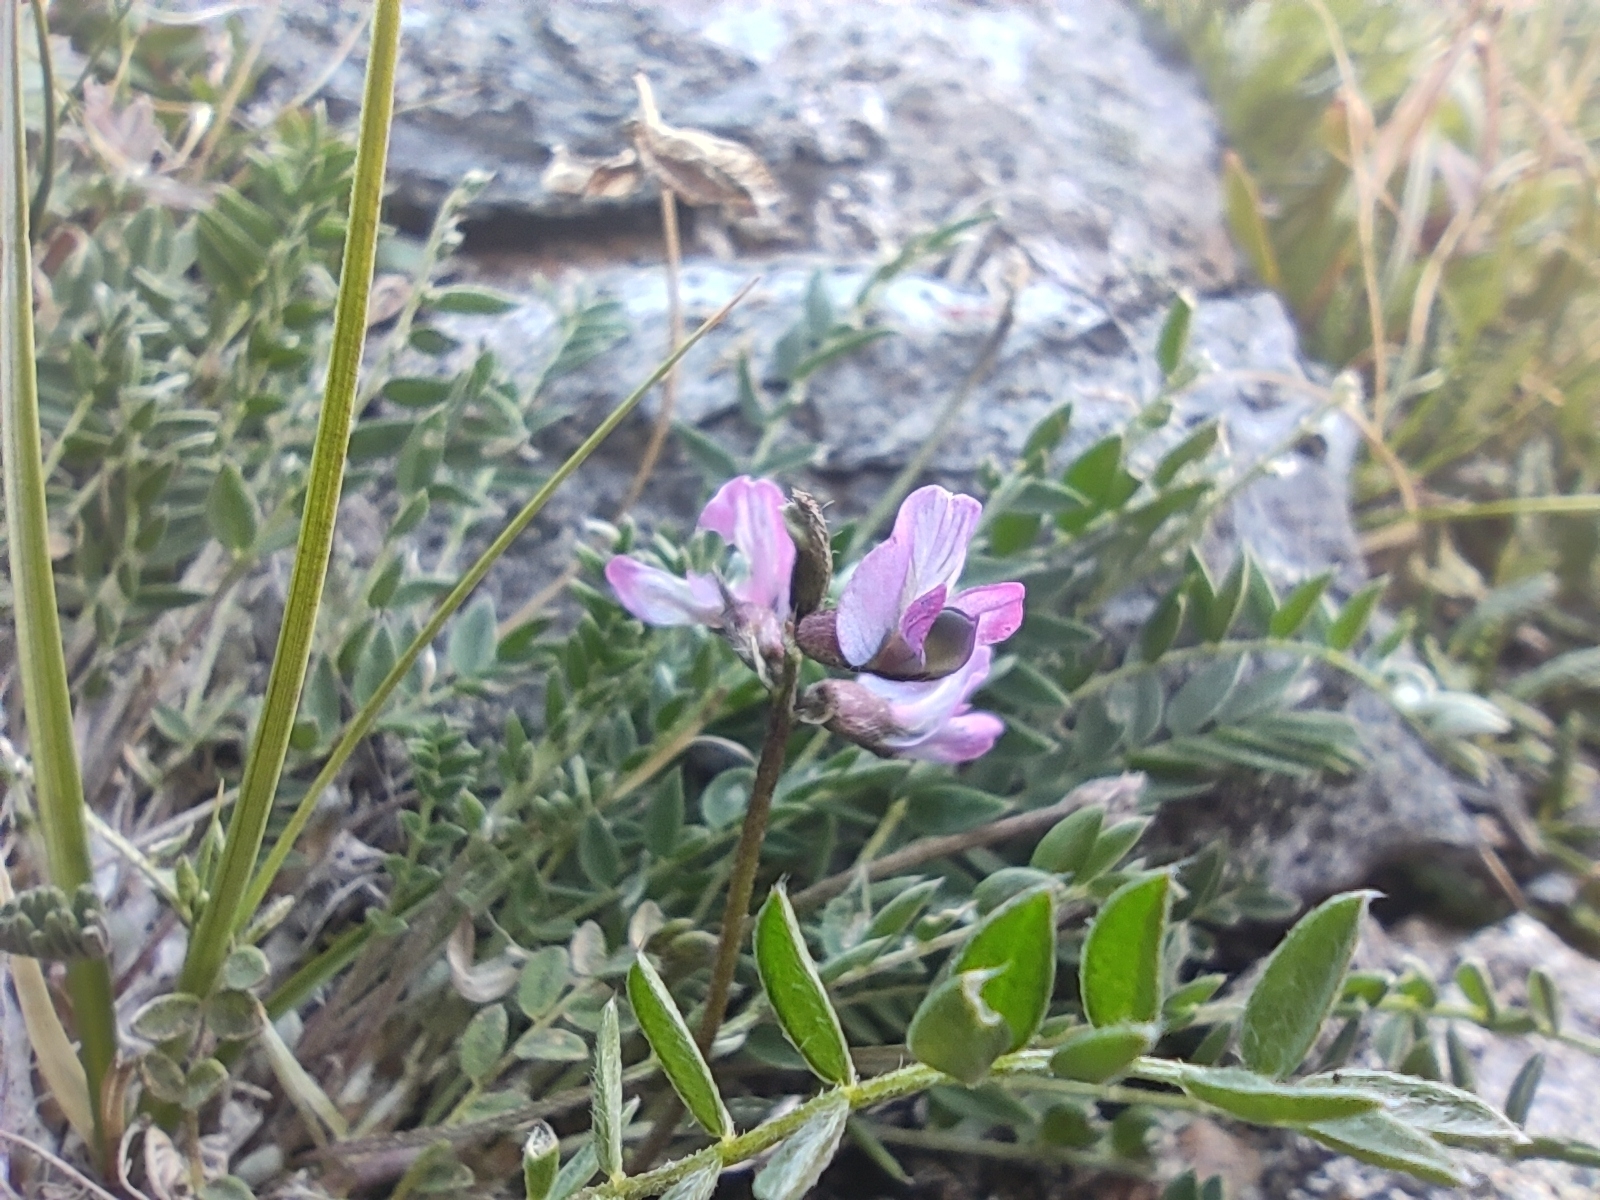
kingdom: Plantae
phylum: Tracheophyta
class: Magnoliopsida
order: Fabales
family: Fabaceae
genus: Oxytropis
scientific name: Oxytropis lapponica
